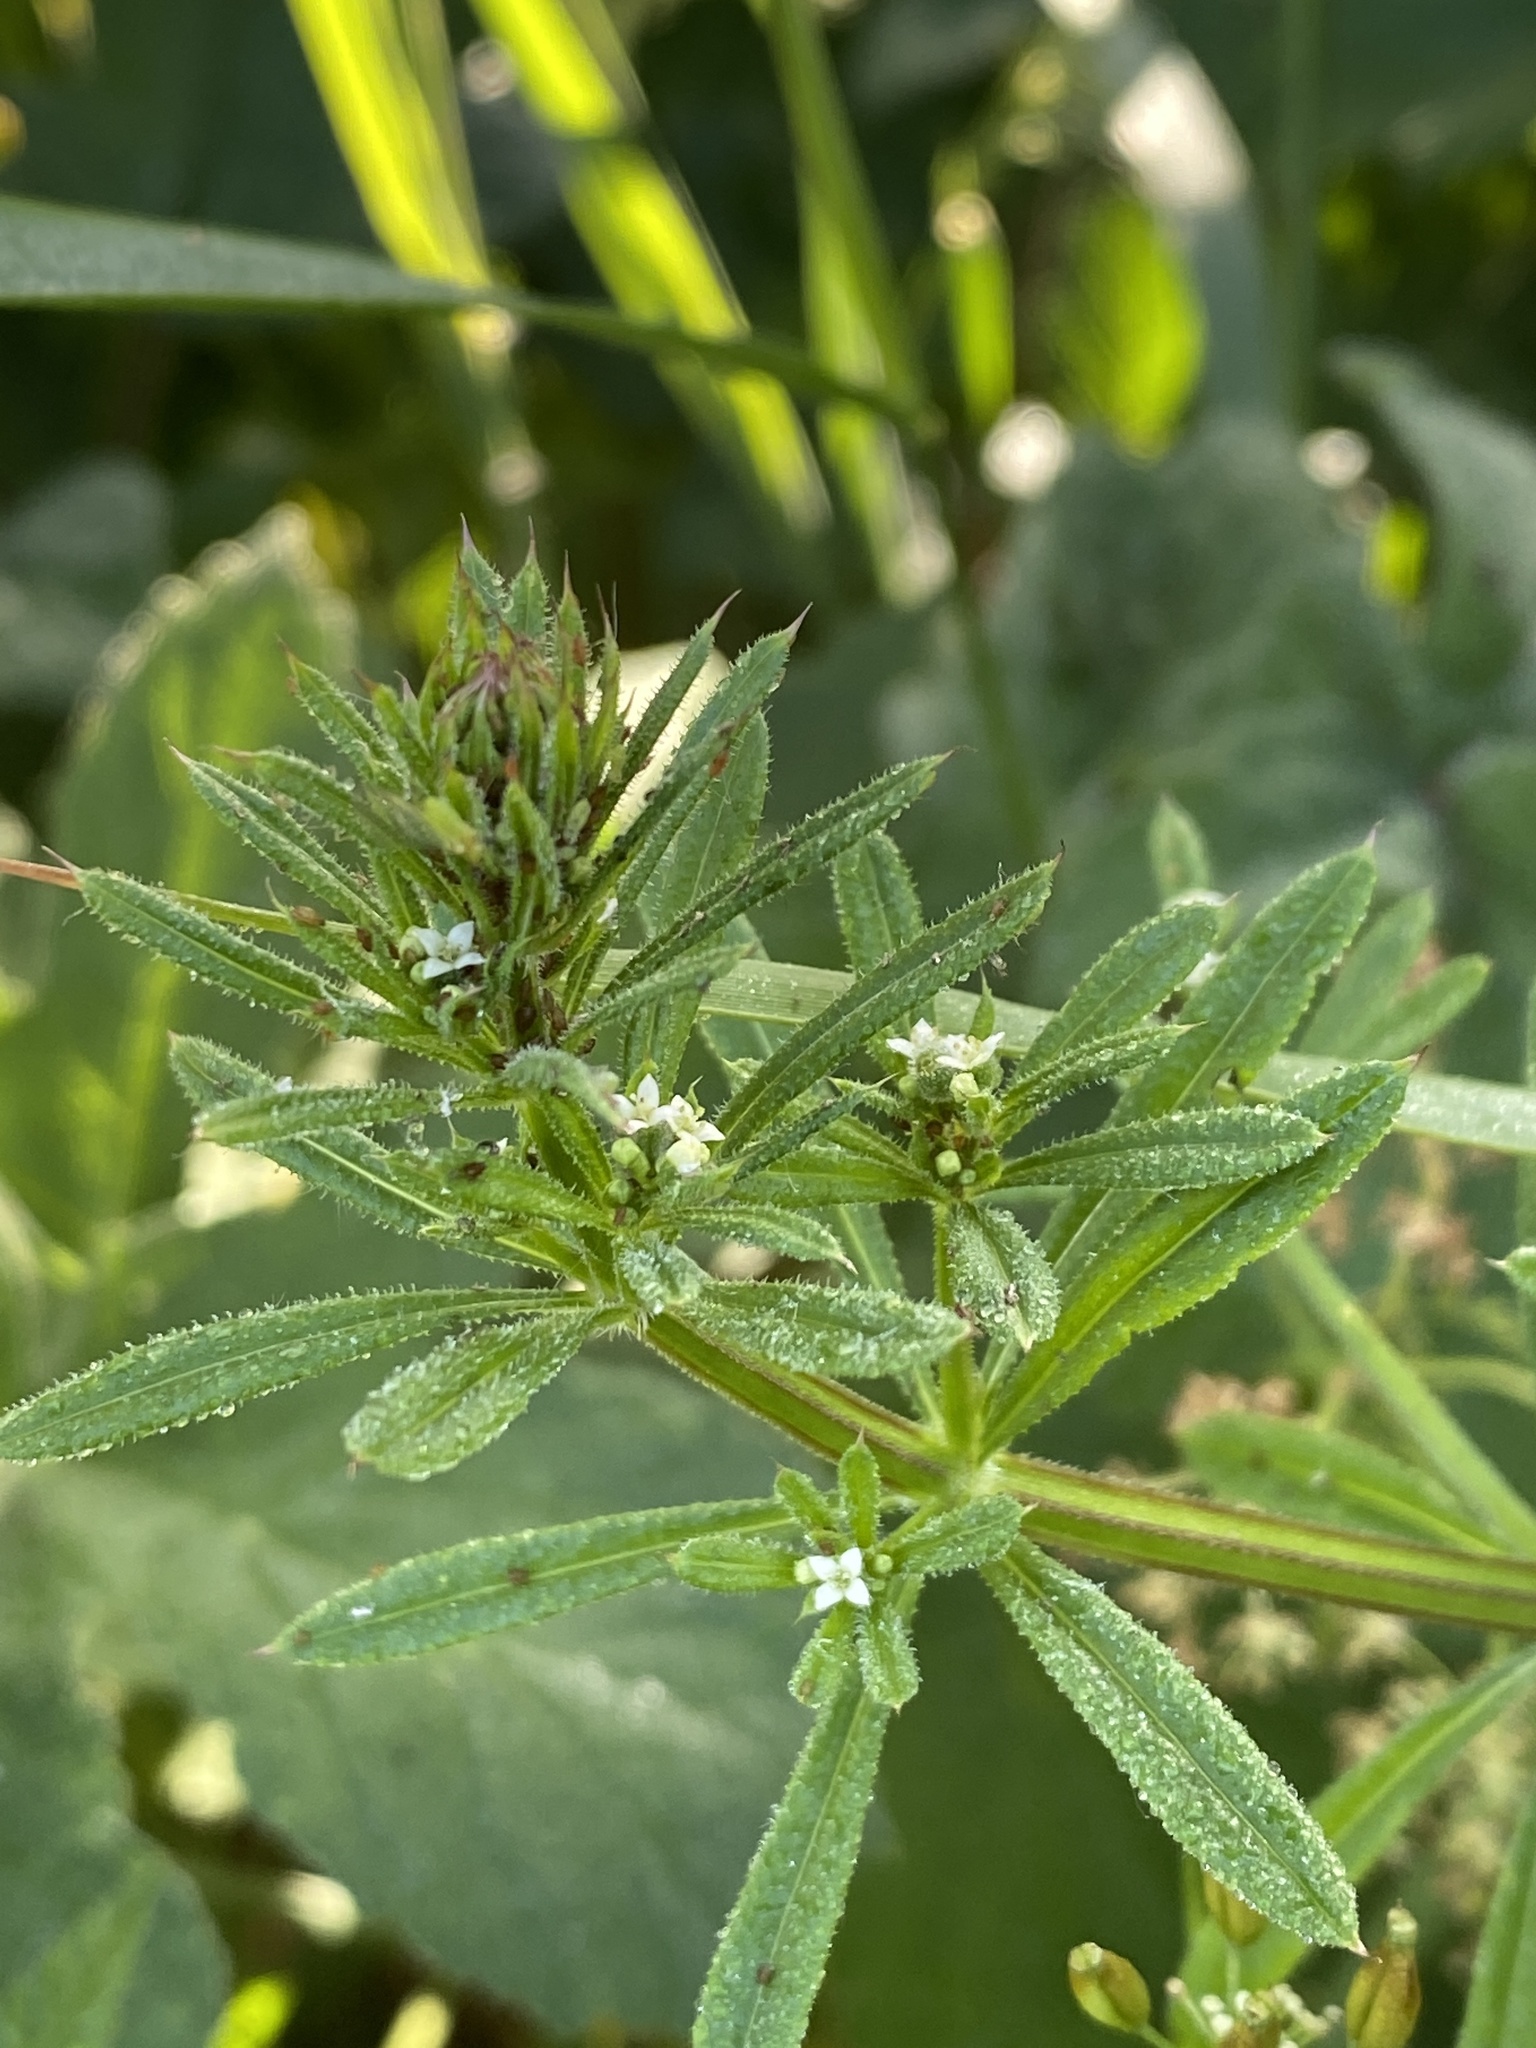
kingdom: Plantae
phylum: Tracheophyta
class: Magnoliopsida
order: Gentianales
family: Rubiaceae
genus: Galium
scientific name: Galium aparine
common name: Cleavers
